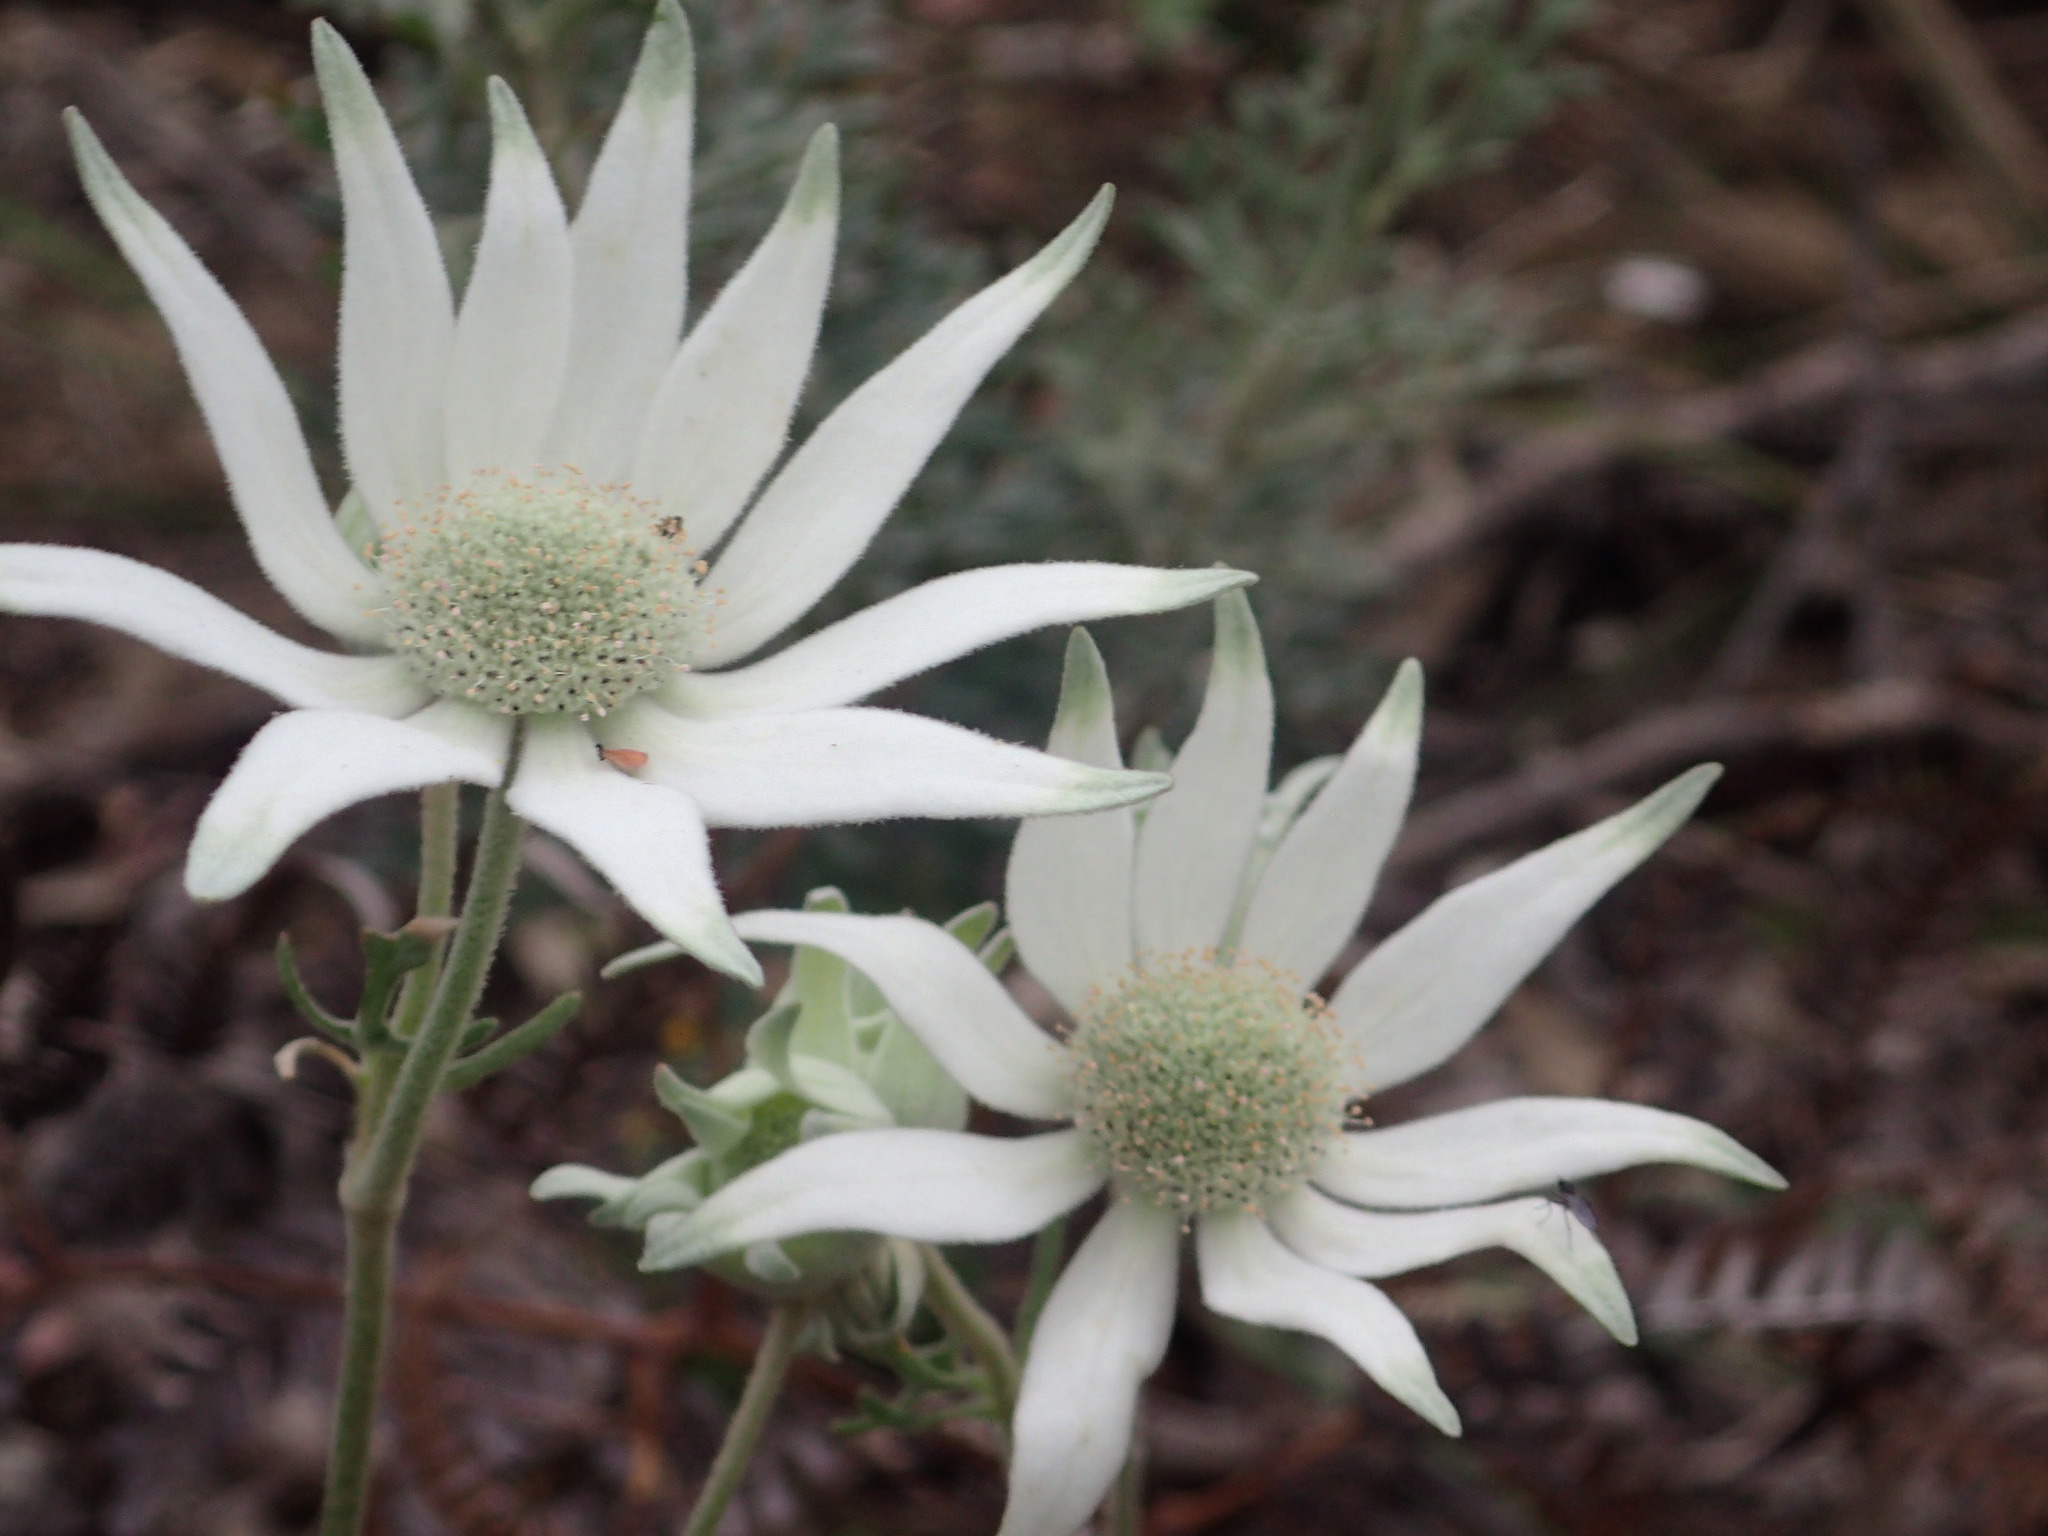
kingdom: Plantae
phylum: Tracheophyta
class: Magnoliopsida
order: Apiales
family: Apiaceae
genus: Actinotus
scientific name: Actinotus helianthi
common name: Flannel-flower
